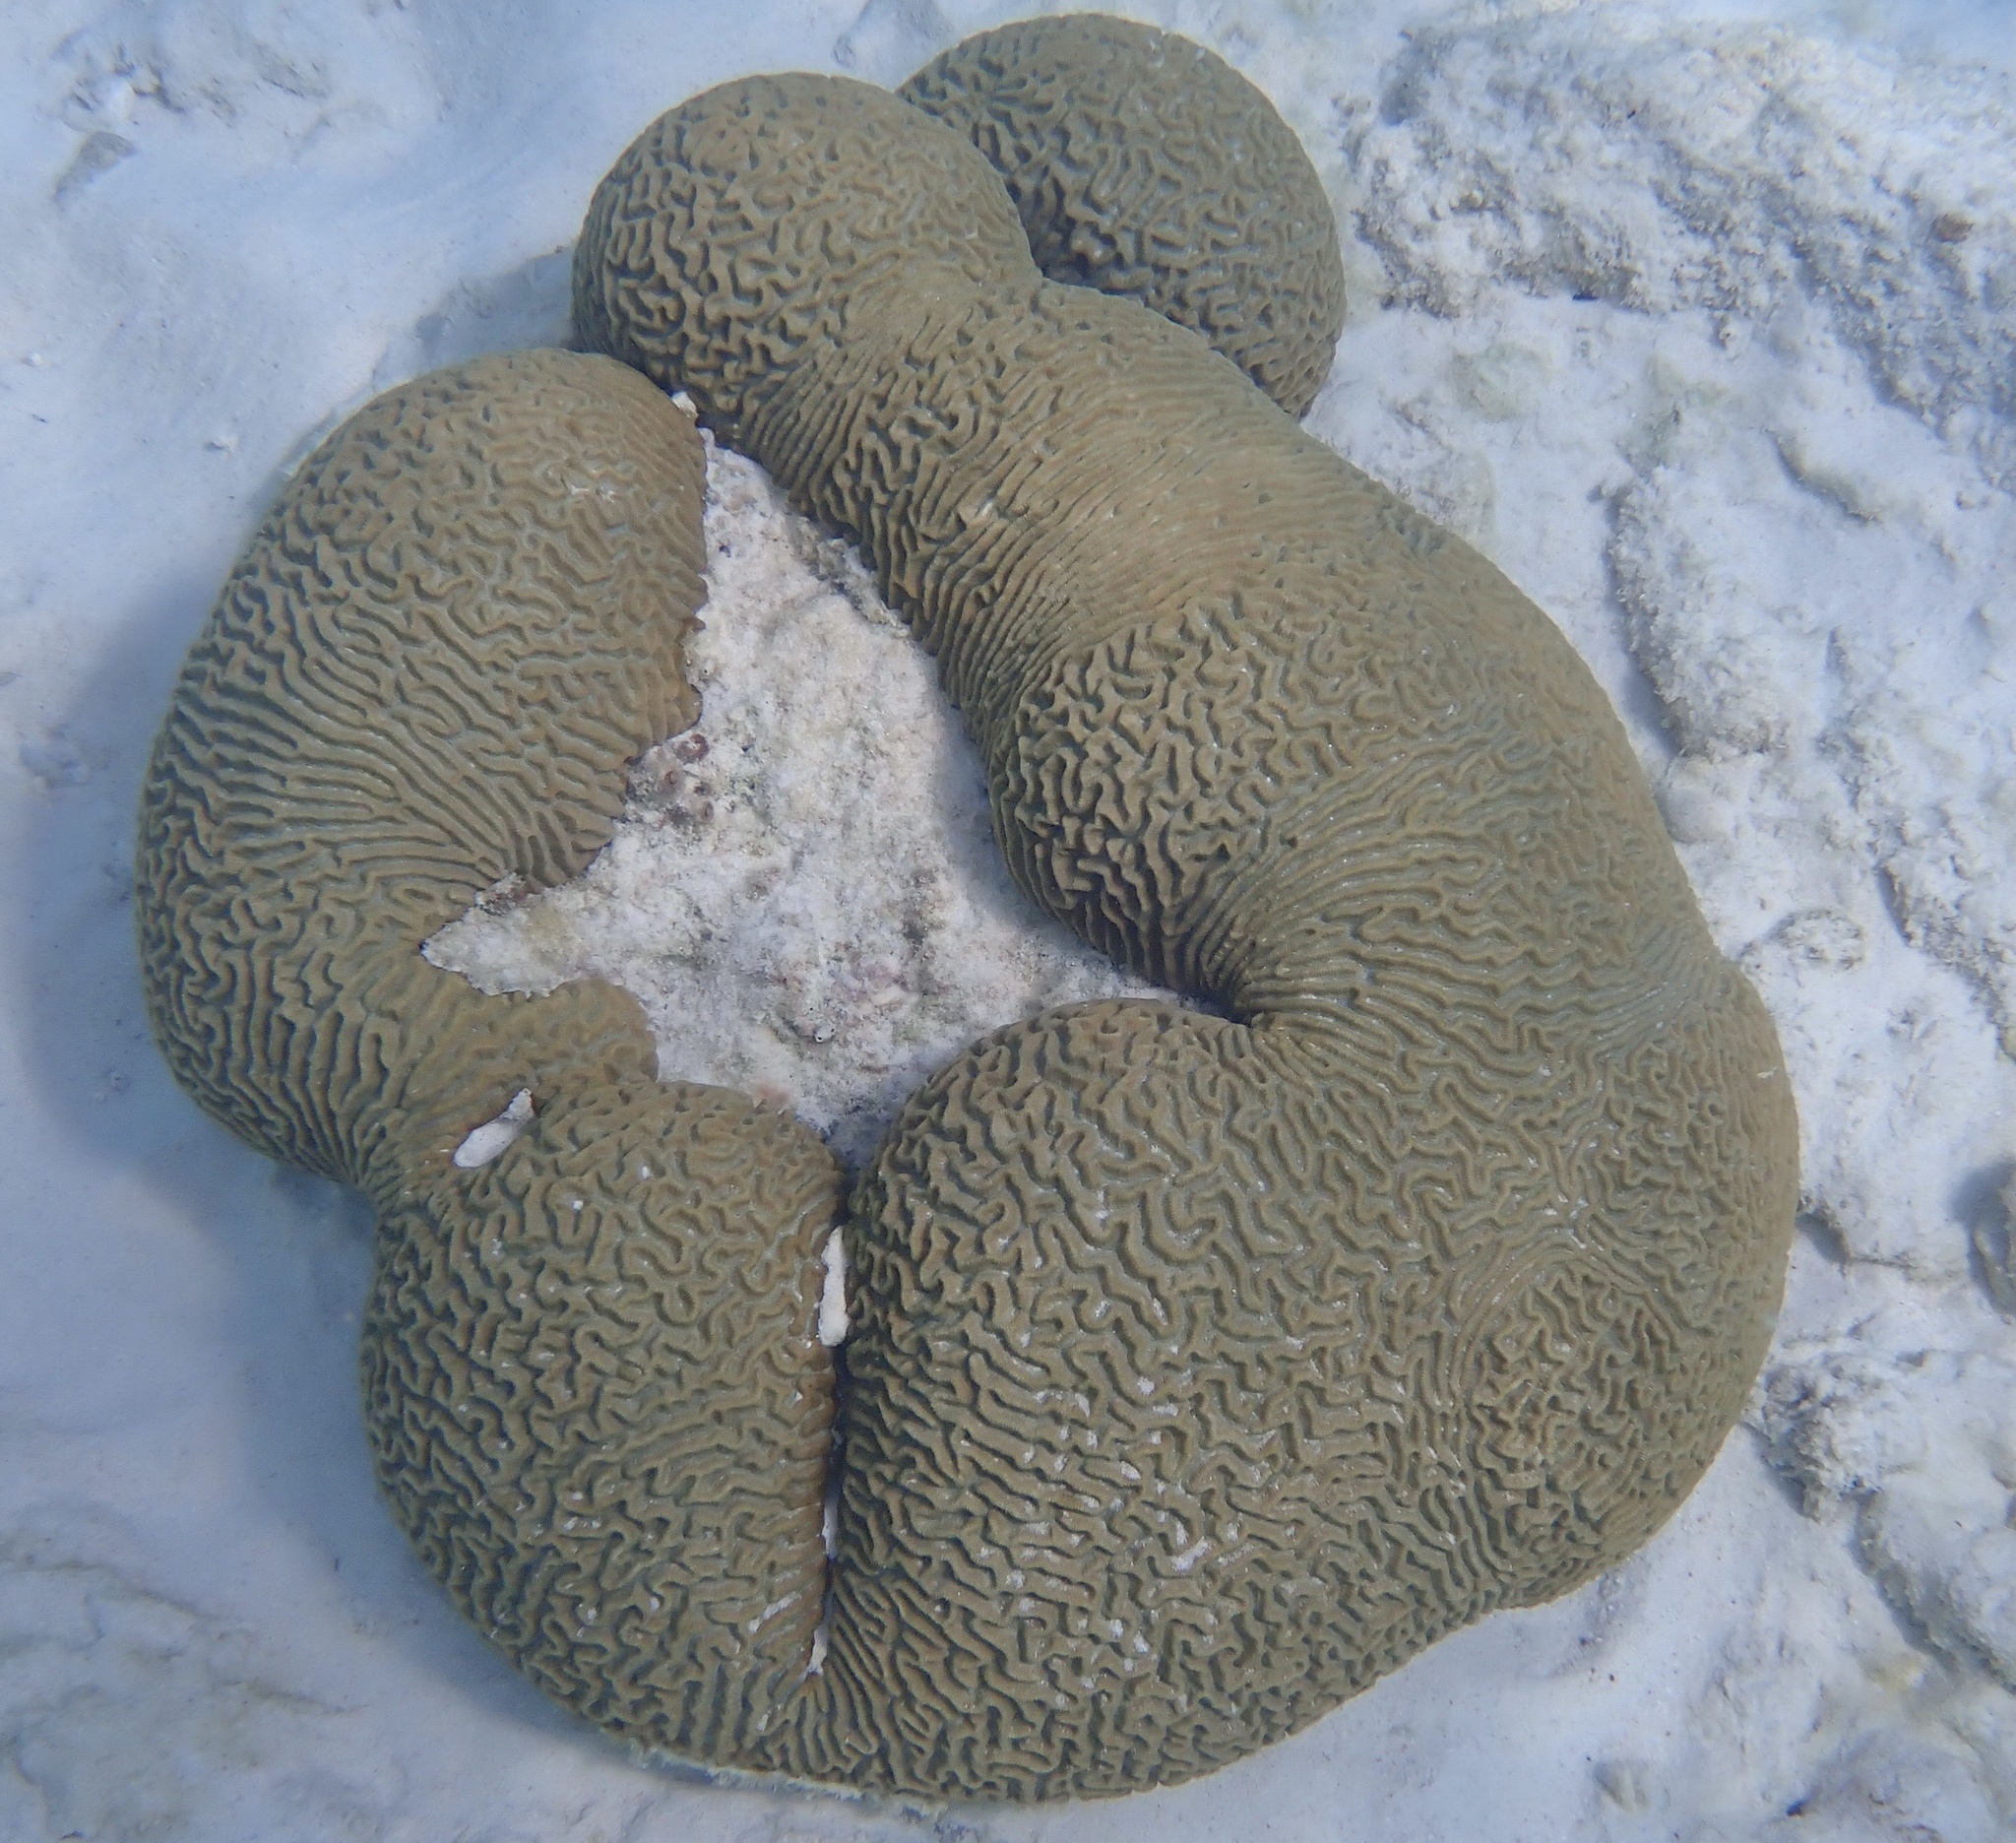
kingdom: Animalia
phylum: Cnidaria
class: Anthozoa
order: Scleractinia
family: Faviidae
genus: Pseudodiploria
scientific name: Pseudodiploria strigosa
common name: Symmetrical brain coral
